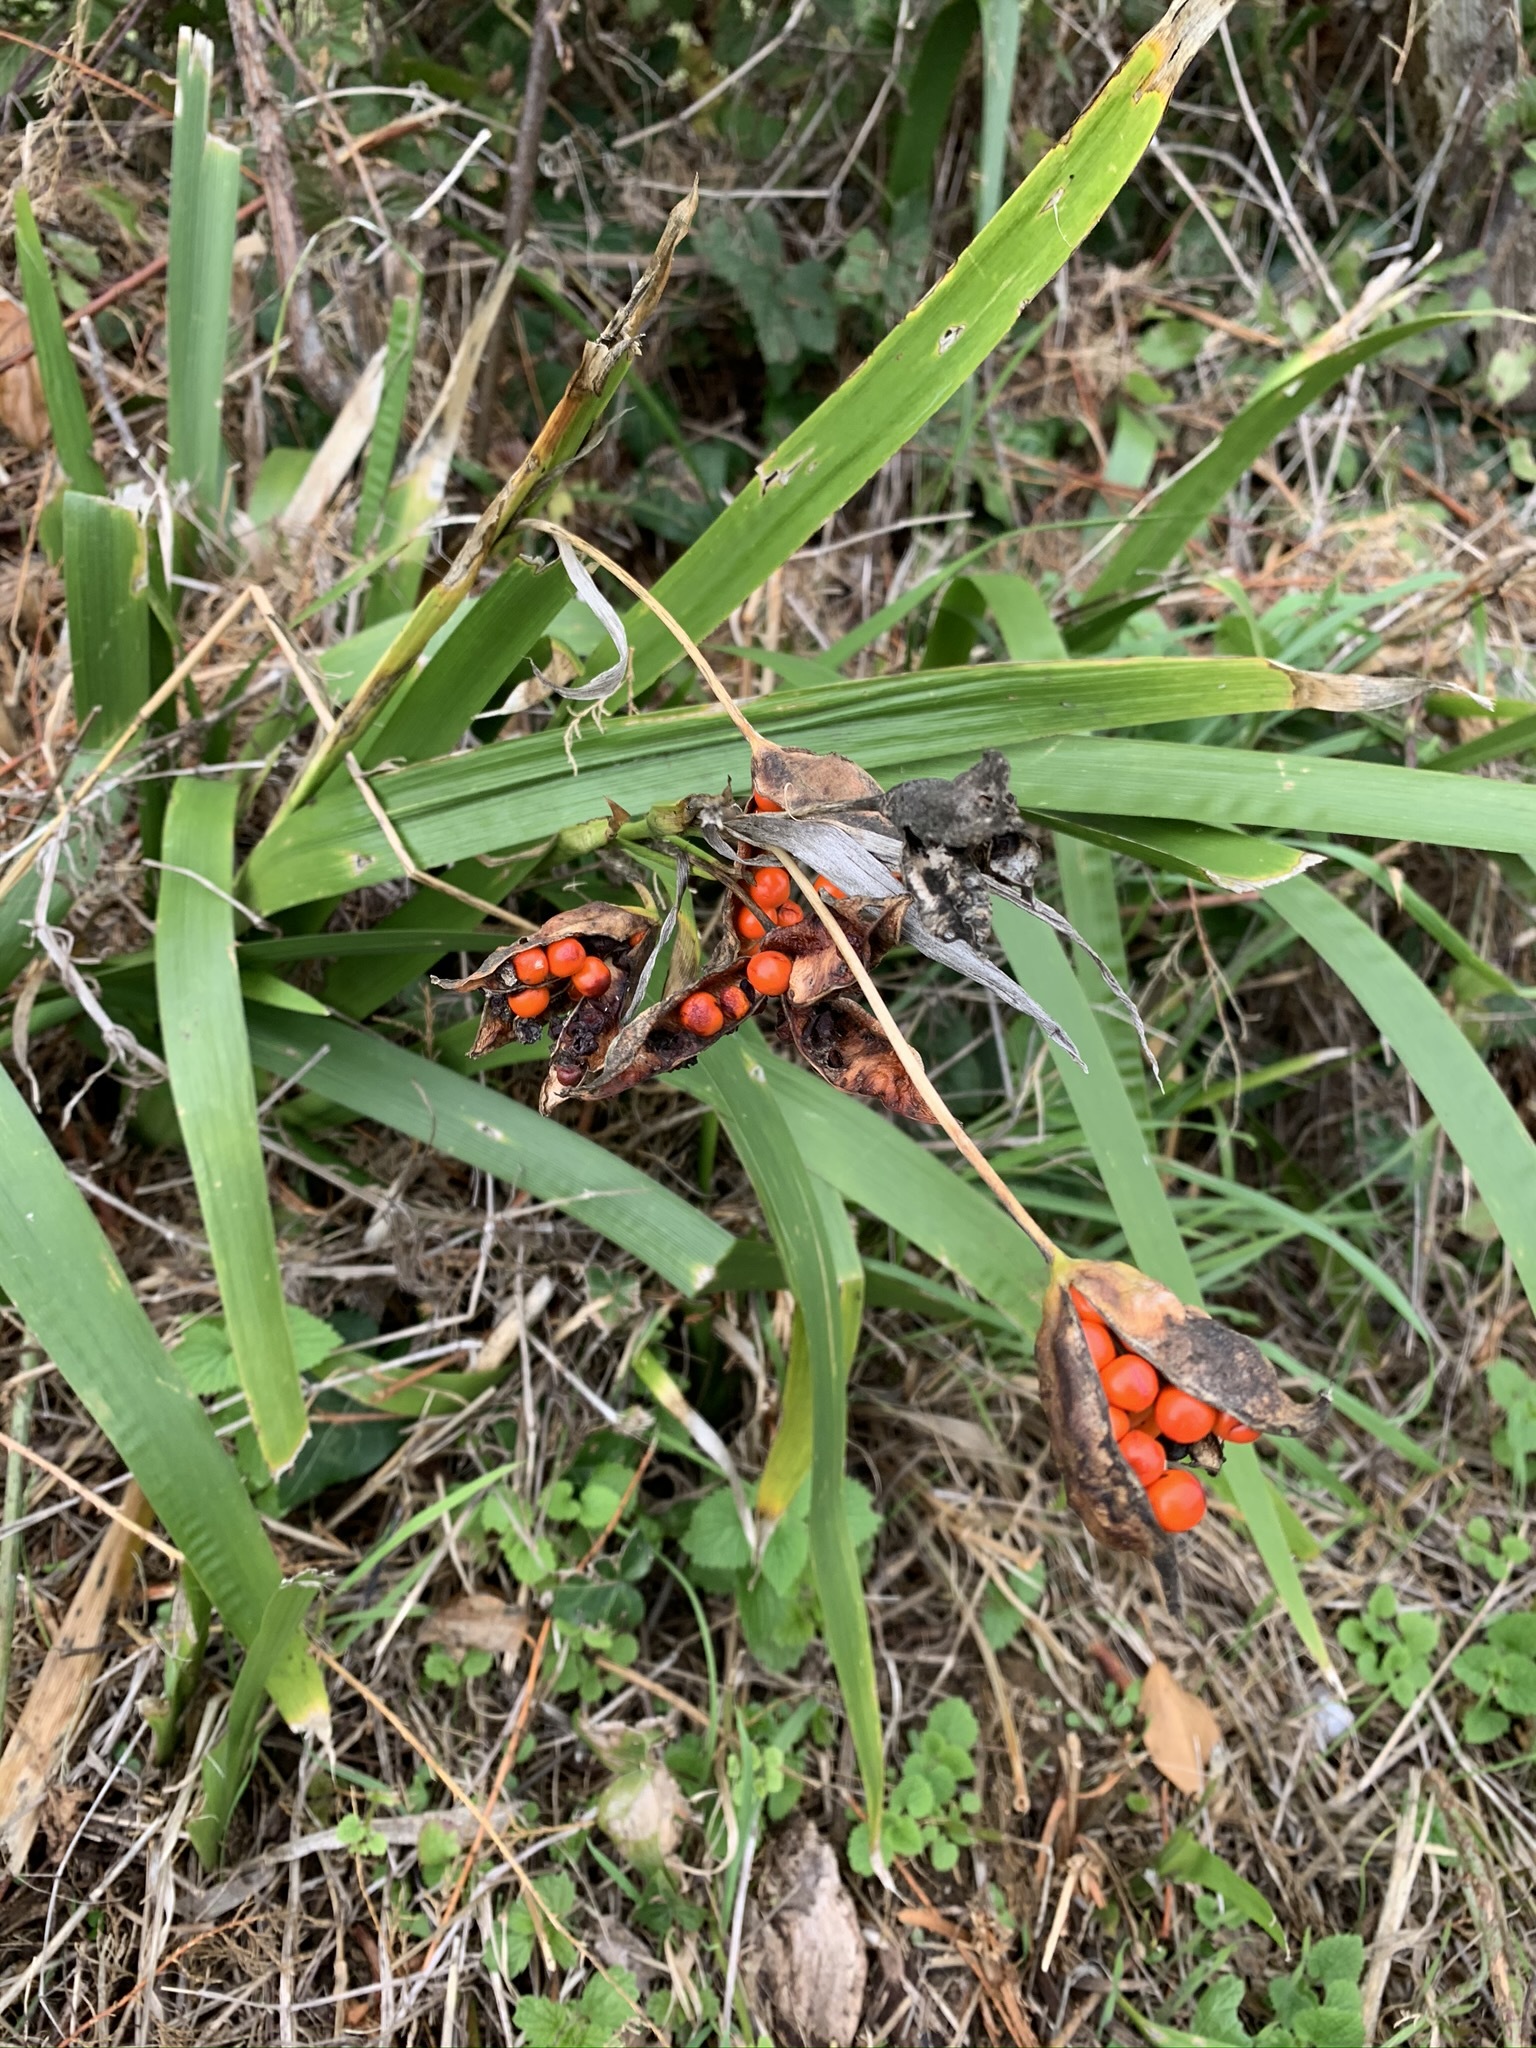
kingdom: Plantae
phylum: Tracheophyta
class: Liliopsida
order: Asparagales
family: Iridaceae
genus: Iris
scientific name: Iris foetidissima
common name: Stinking iris
